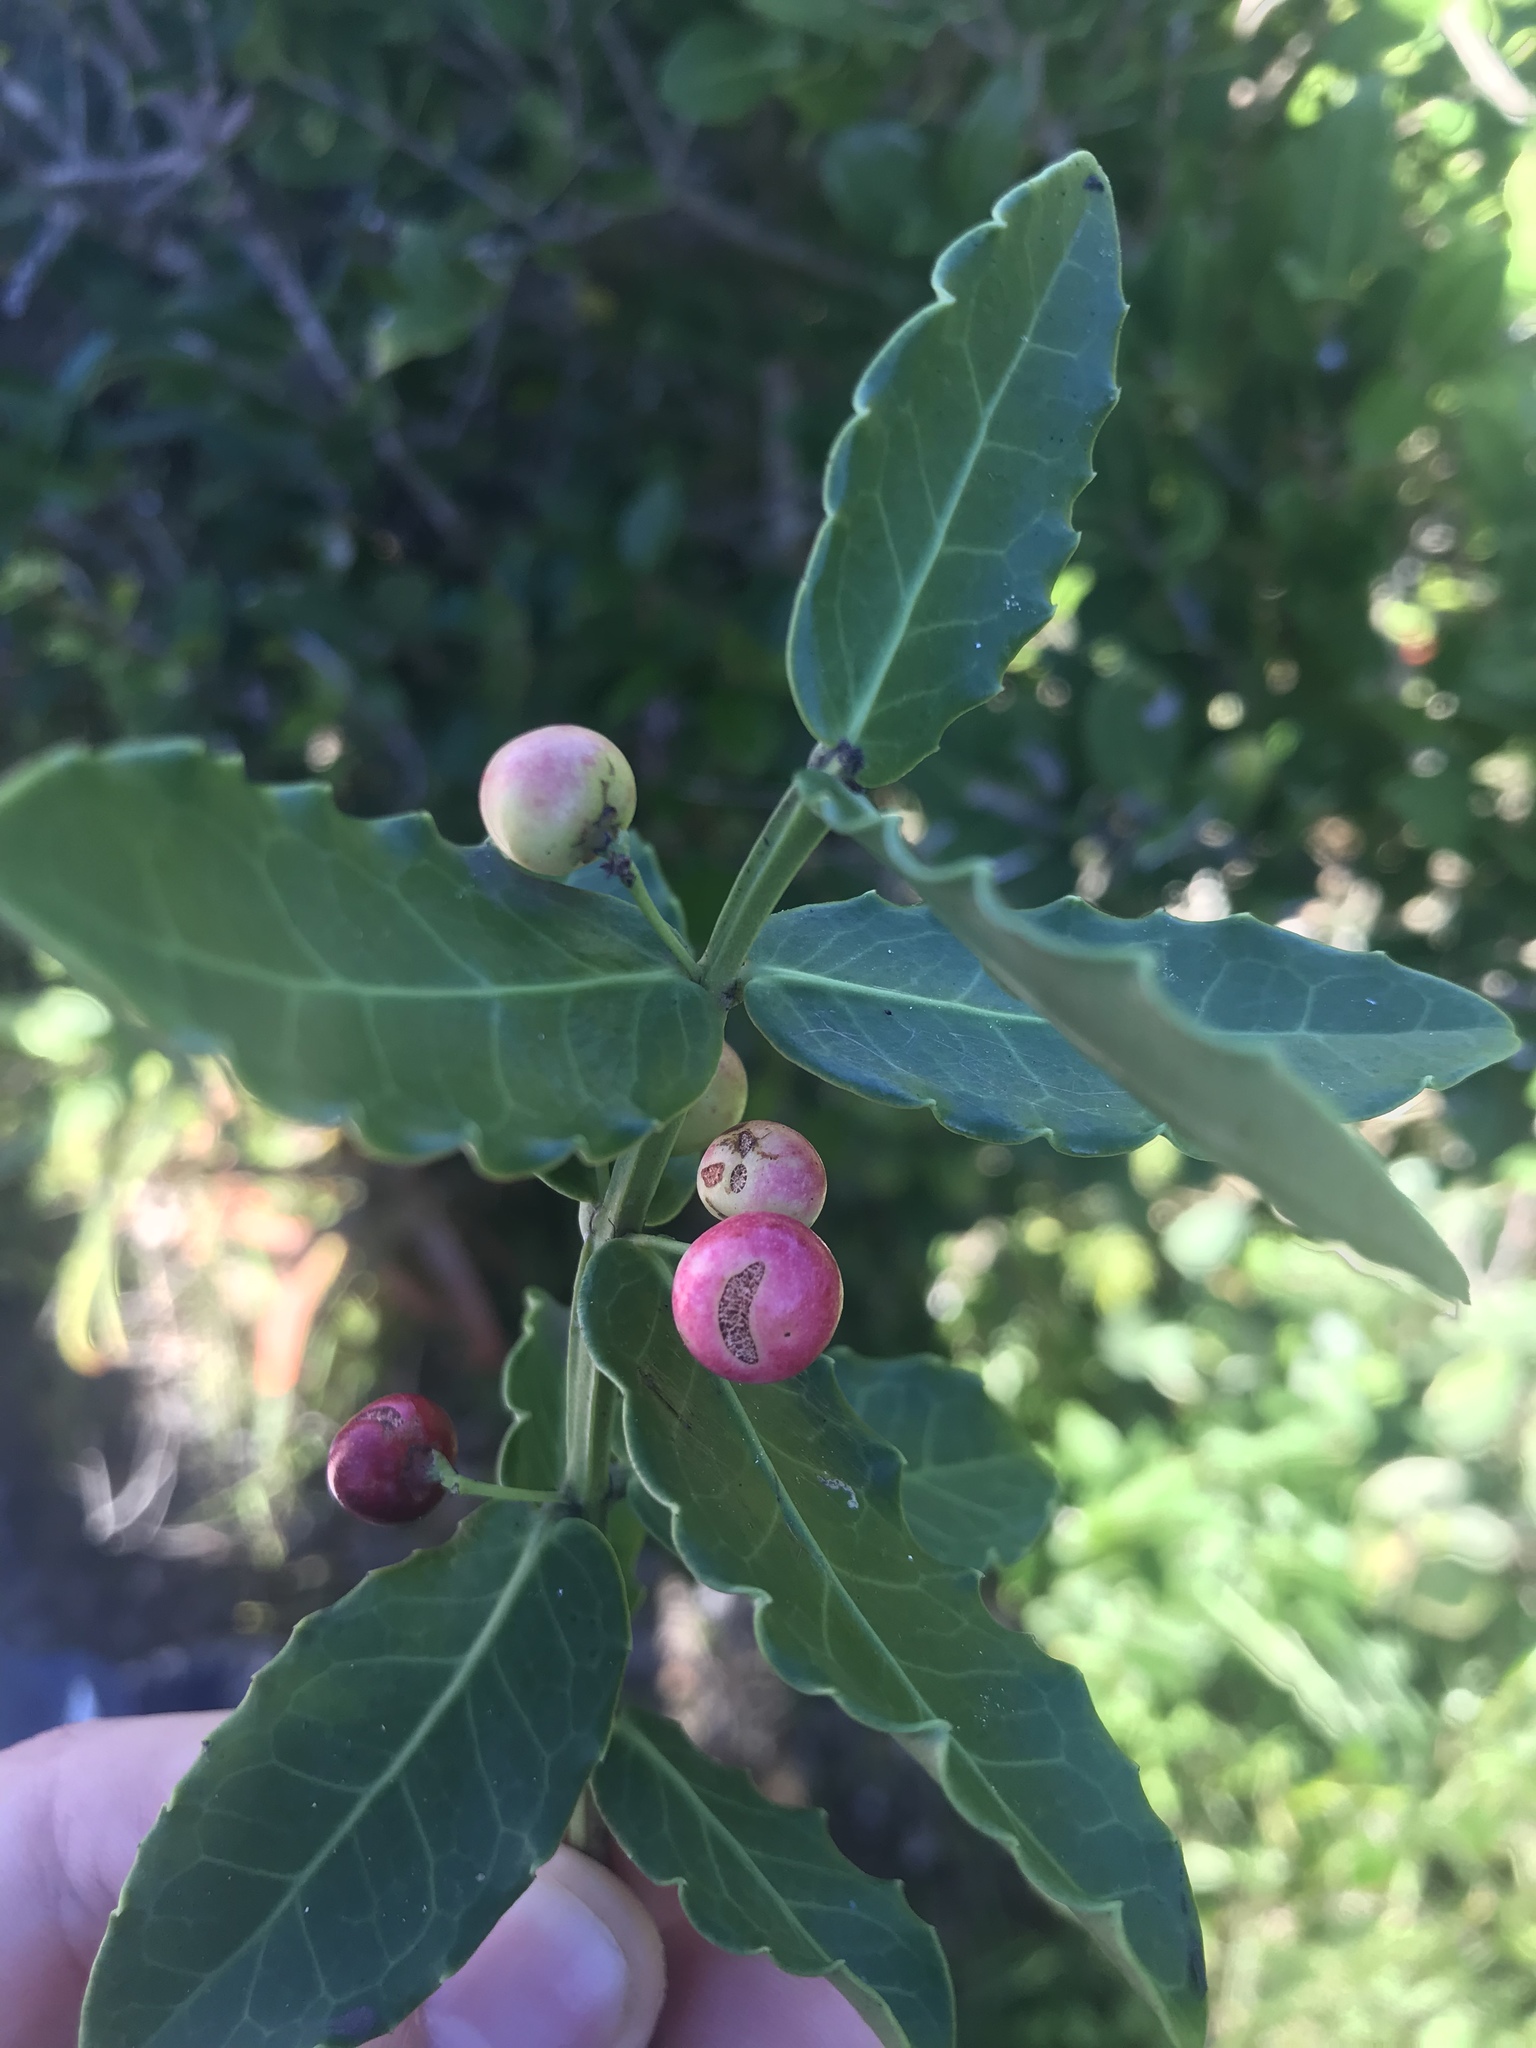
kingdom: Plantae
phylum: Tracheophyta
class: Magnoliopsida
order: Celastrales
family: Celastraceae
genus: Lauridia
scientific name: Lauridia tetragona
